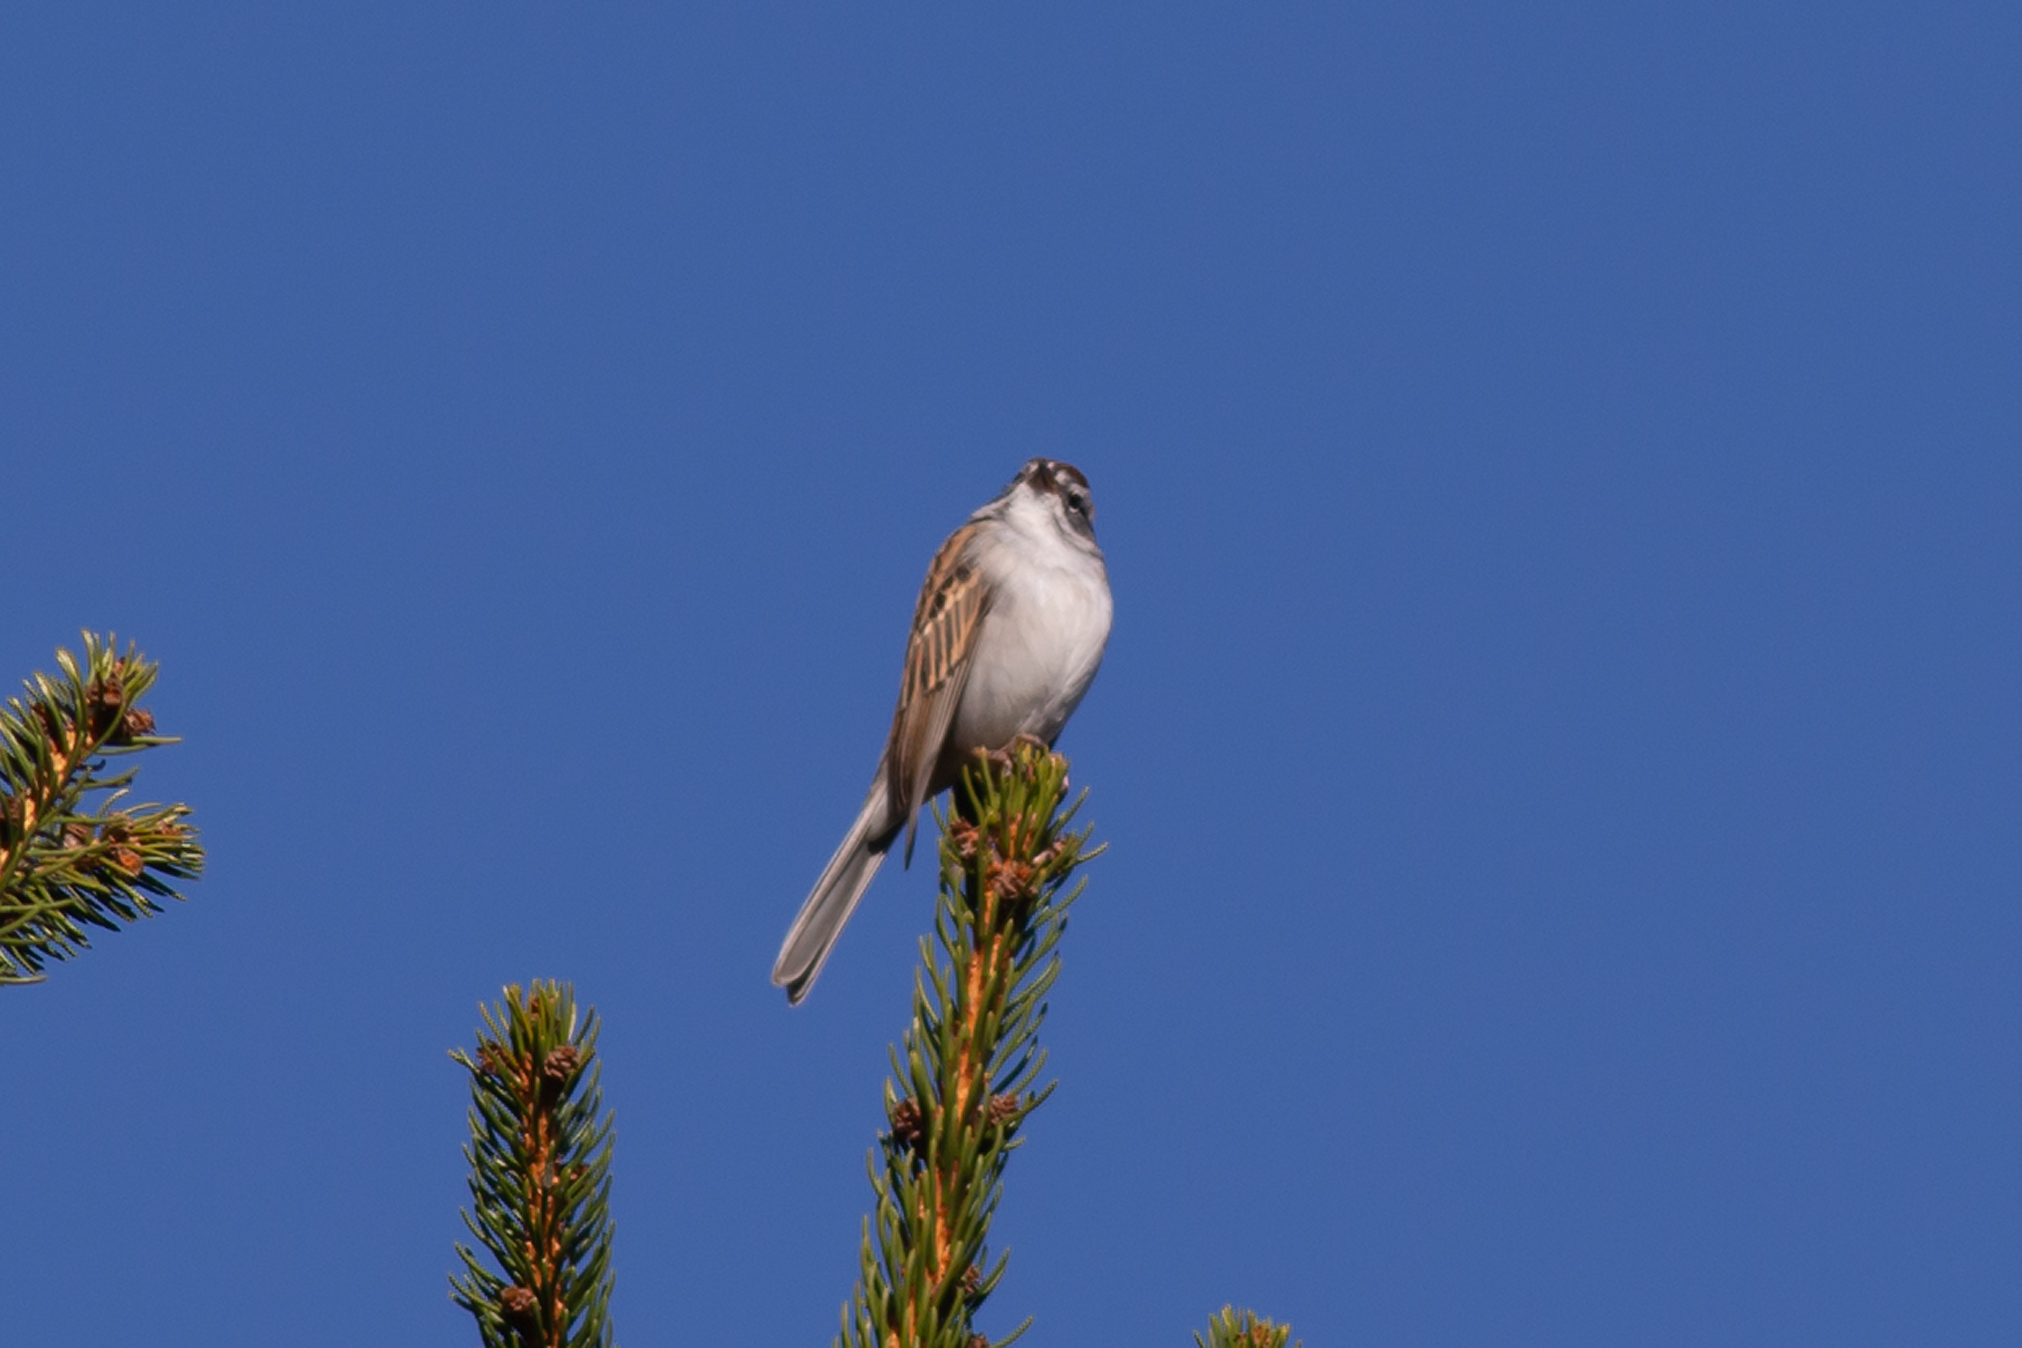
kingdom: Animalia
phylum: Chordata
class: Aves
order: Passeriformes
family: Passerellidae
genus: Spizella
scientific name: Spizella passerina
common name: Chipping sparrow
